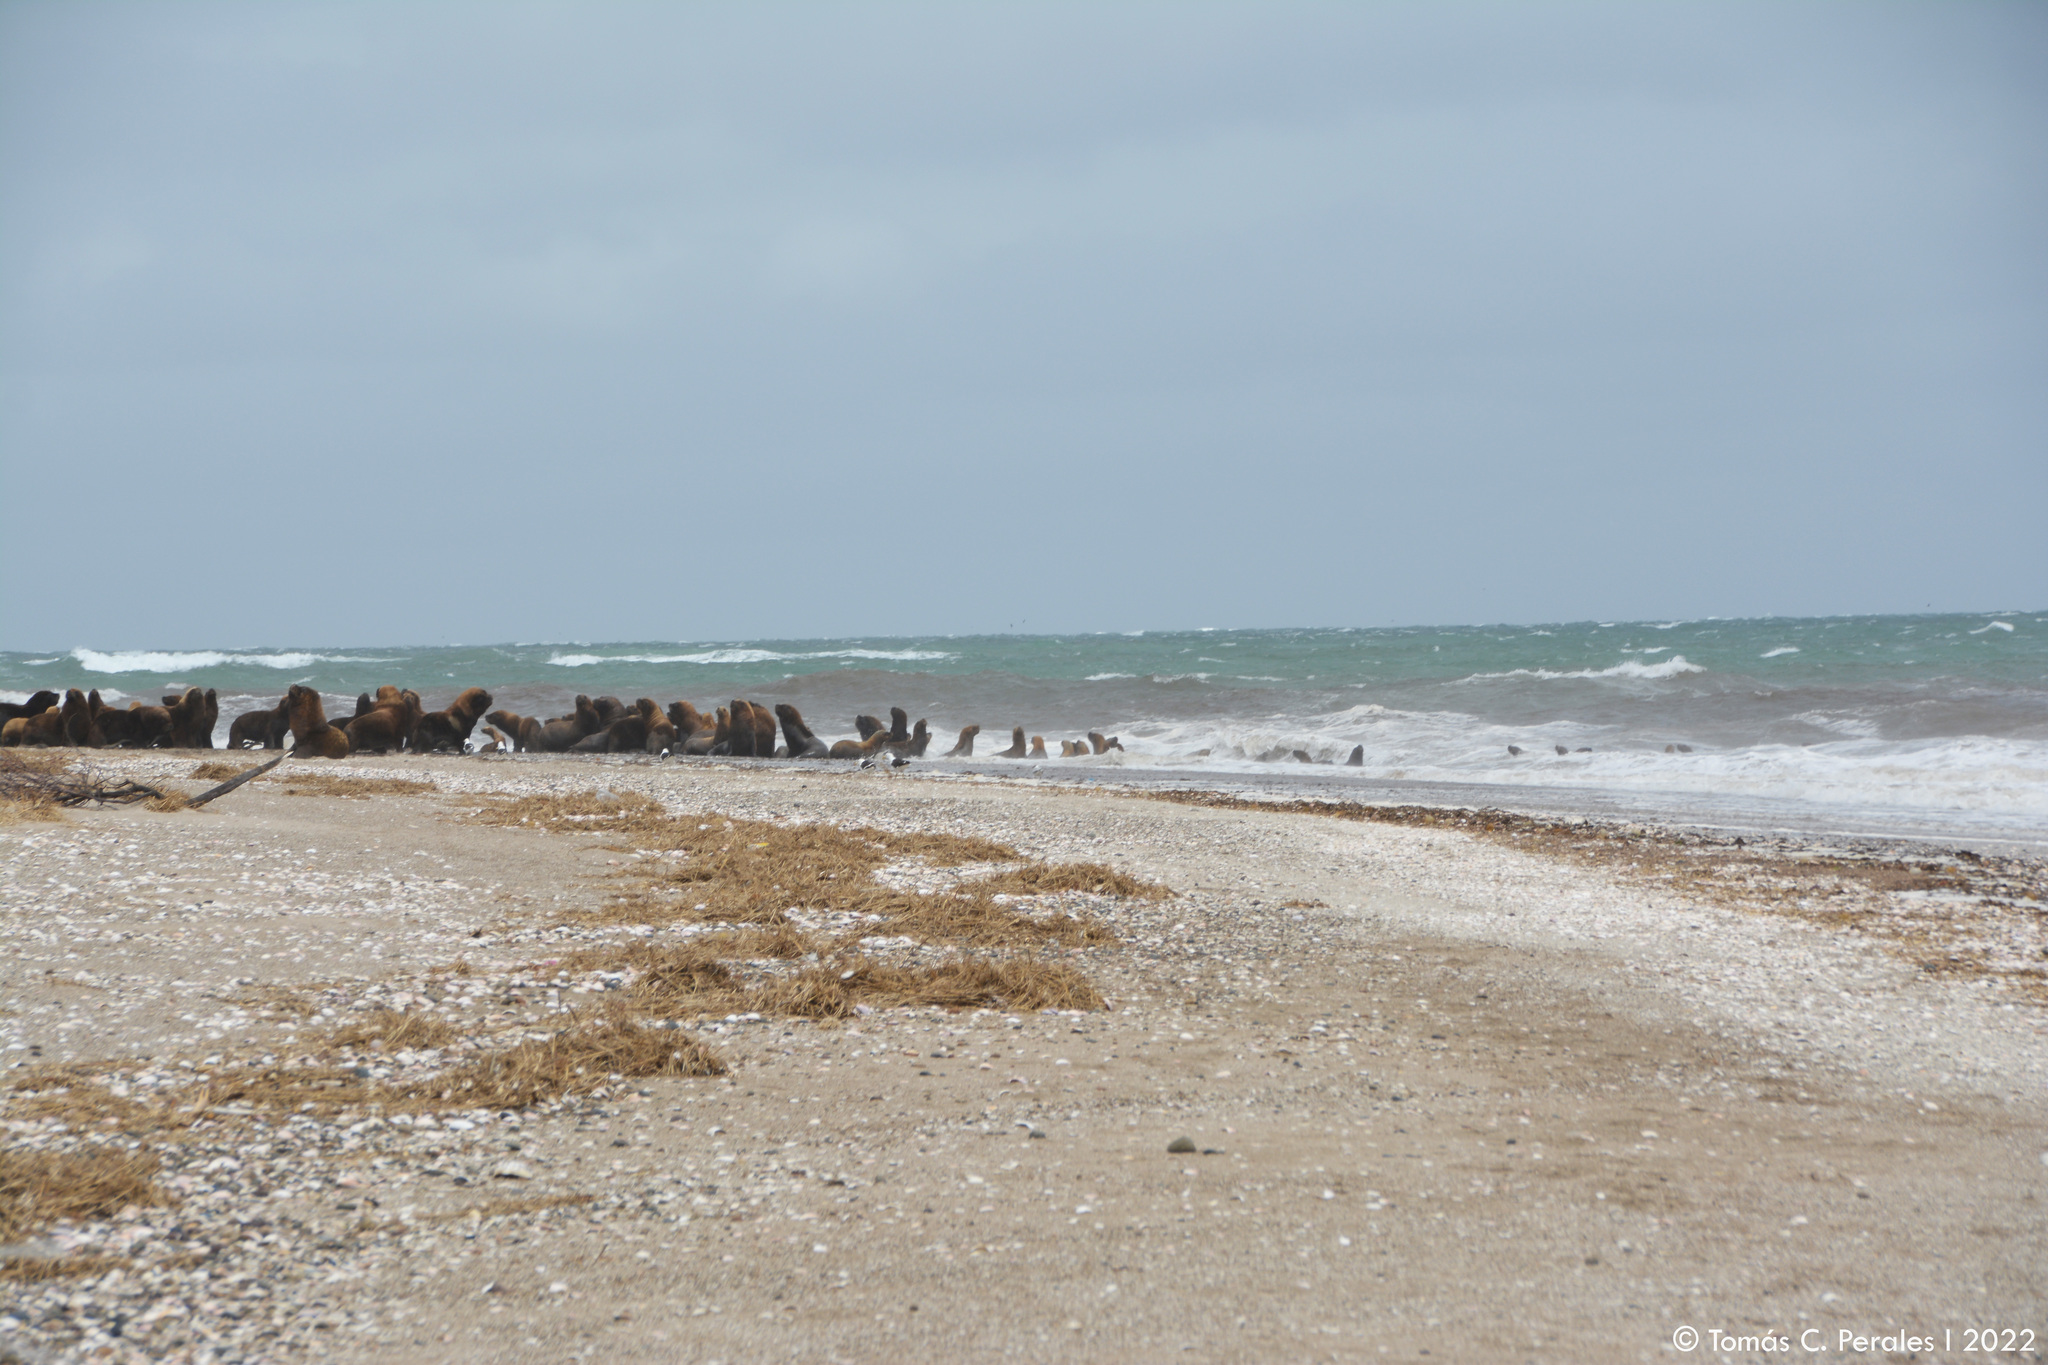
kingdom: Animalia
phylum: Chordata
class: Mammalia
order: Carnivora
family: Otariidae
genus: Otaria
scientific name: Otaria byronia
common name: South american sea lion
